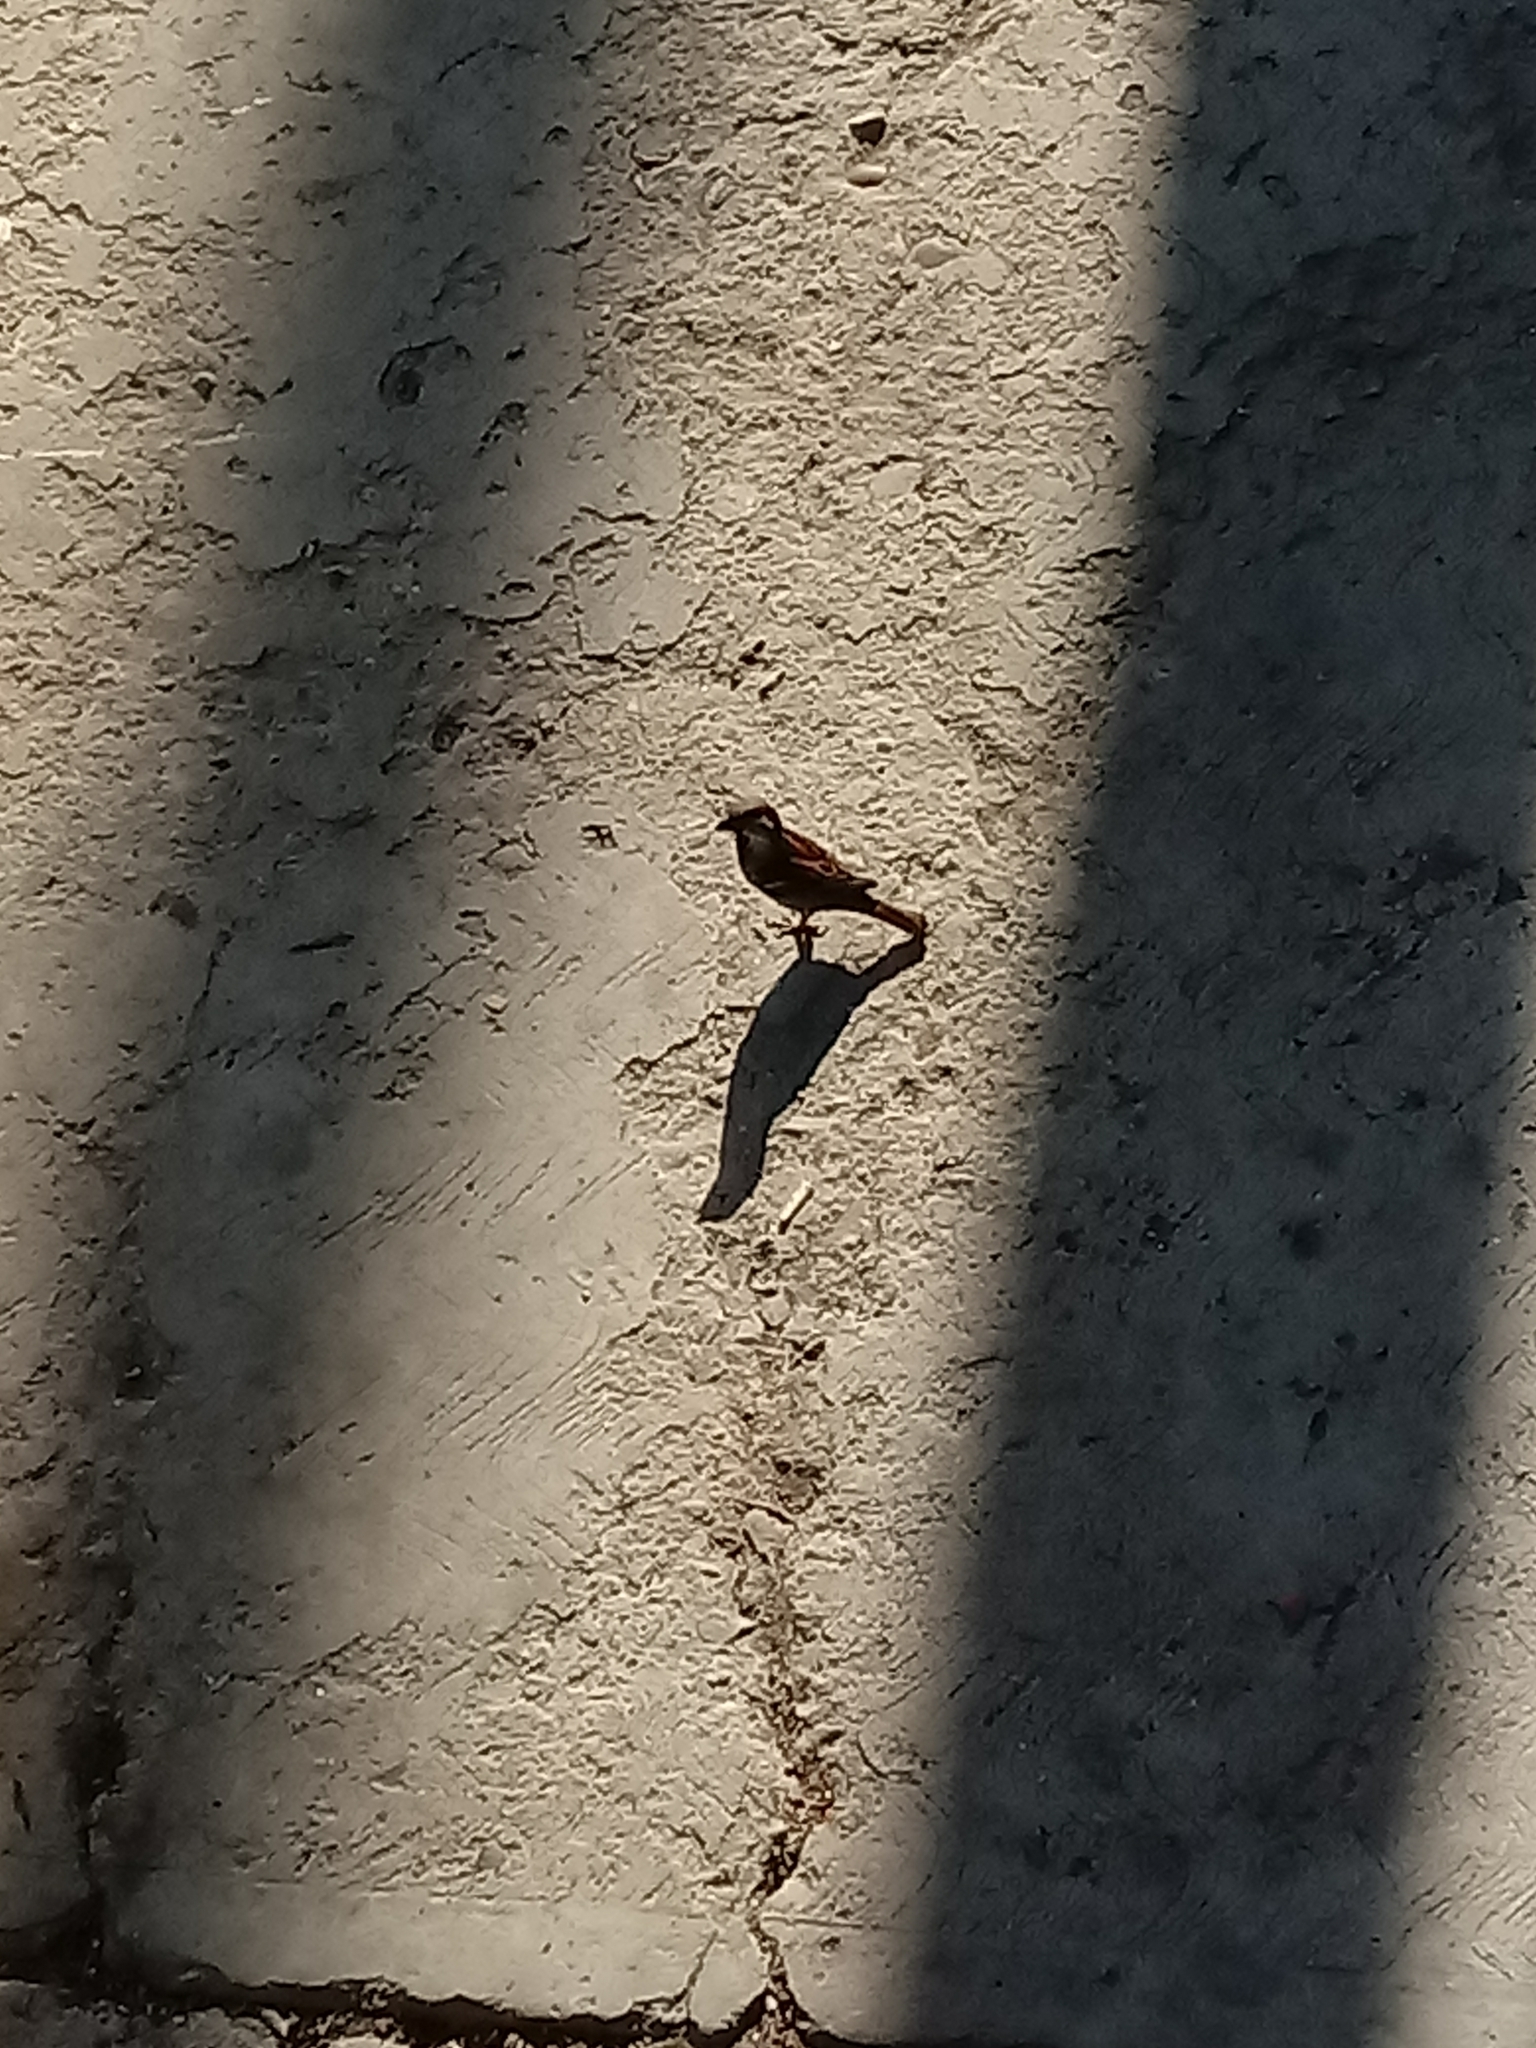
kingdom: Animalia
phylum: Chordata
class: Aves
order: Passeriformes
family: Passeridae
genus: Passer
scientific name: Passer domesticus
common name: House sparrow
